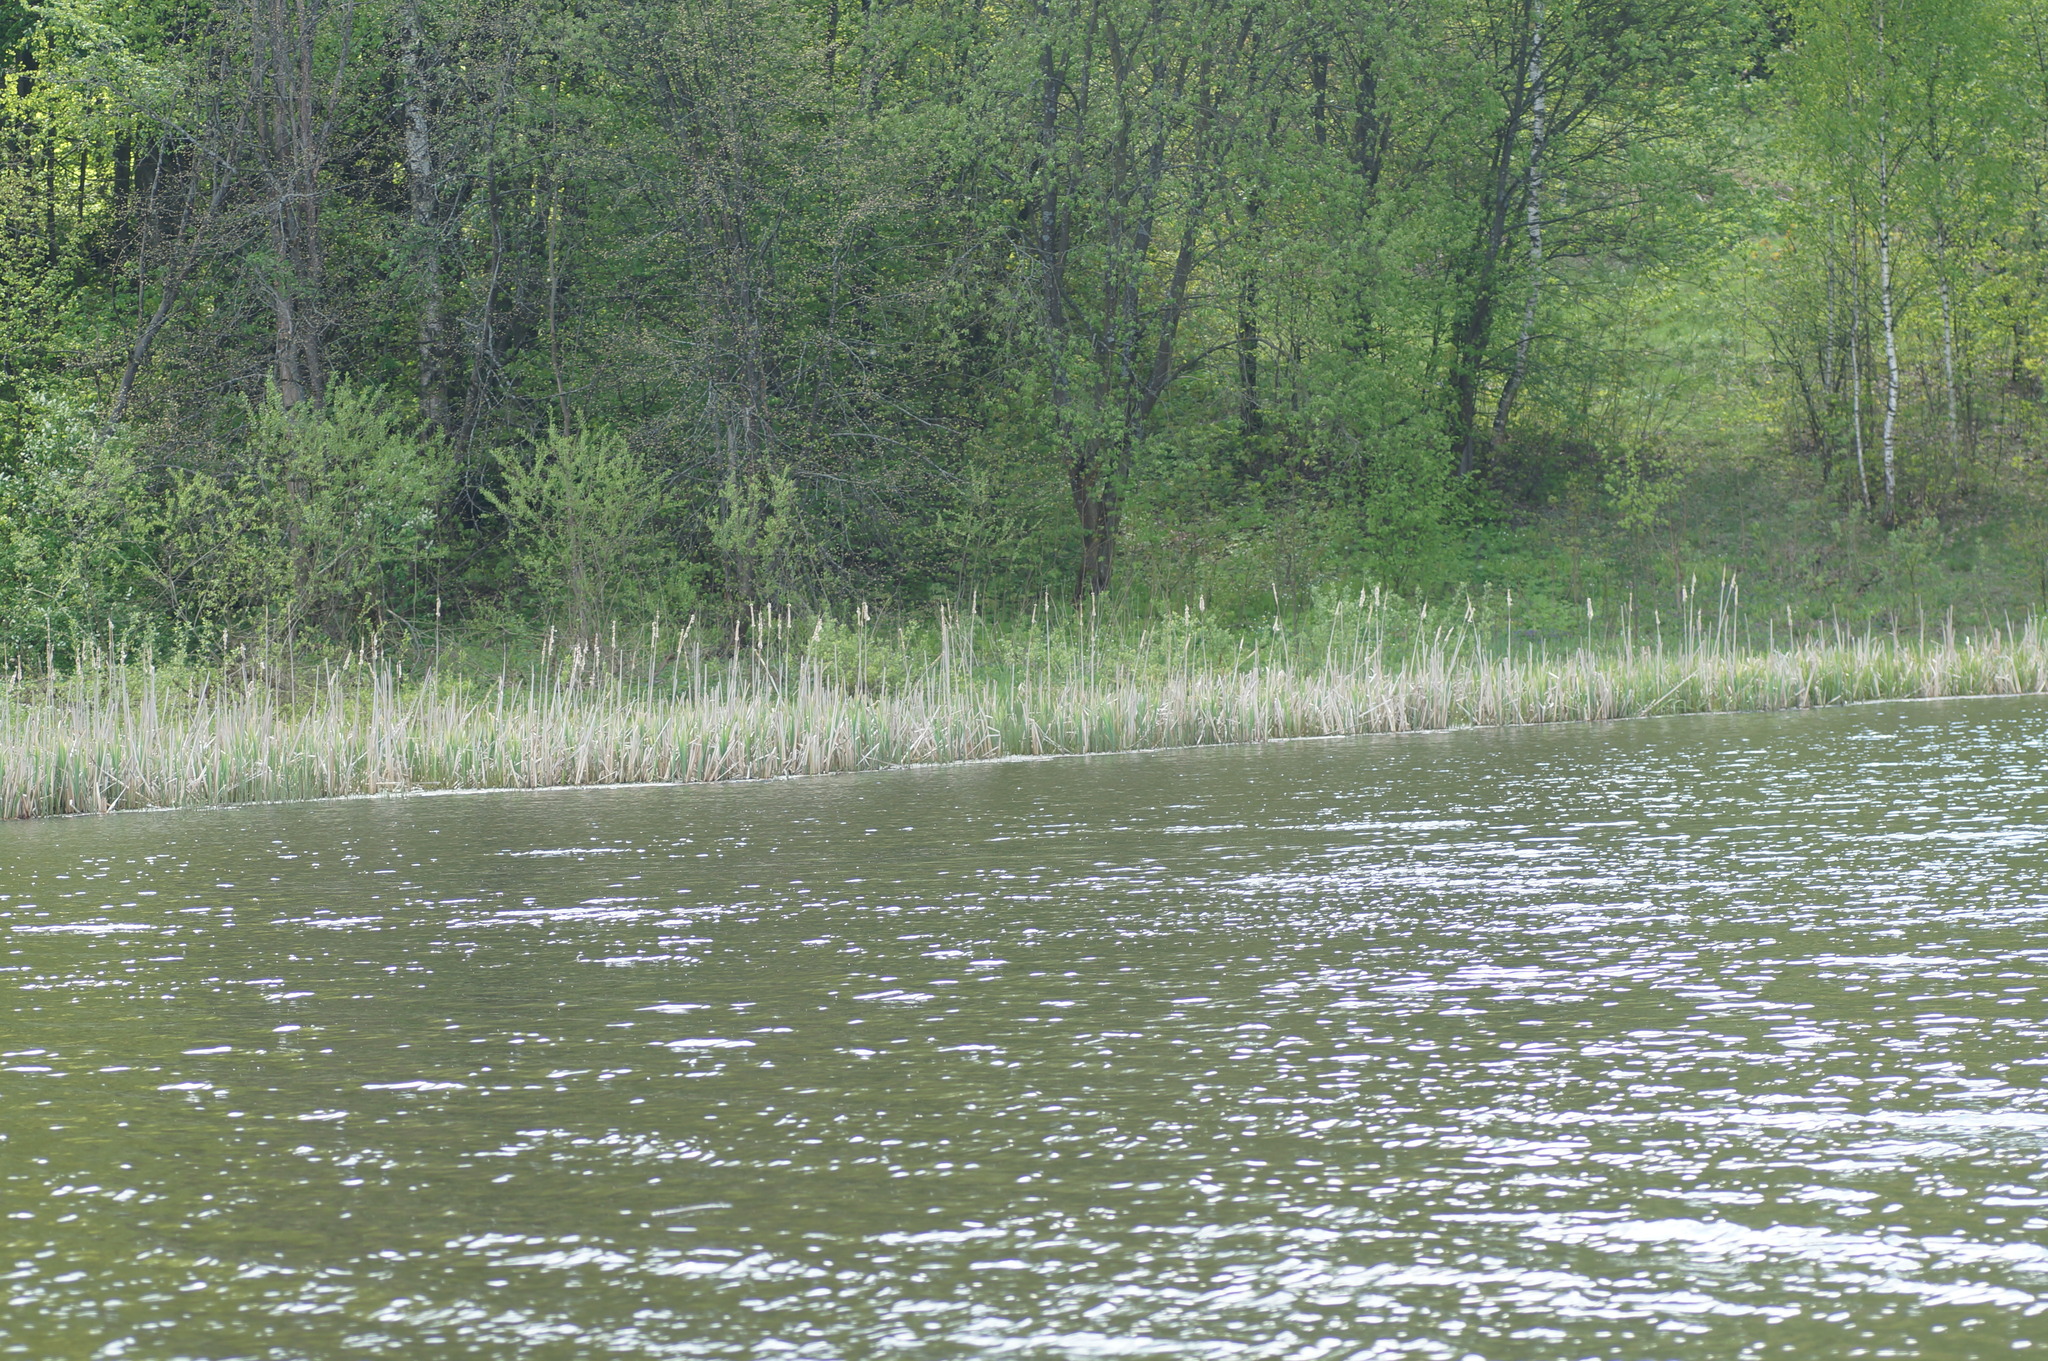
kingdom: Plantae
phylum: Tracheophyta
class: Liliopsida
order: Poales
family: Typhaceae
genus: Typha
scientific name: Typha latifolia
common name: Broadleaf cattail
